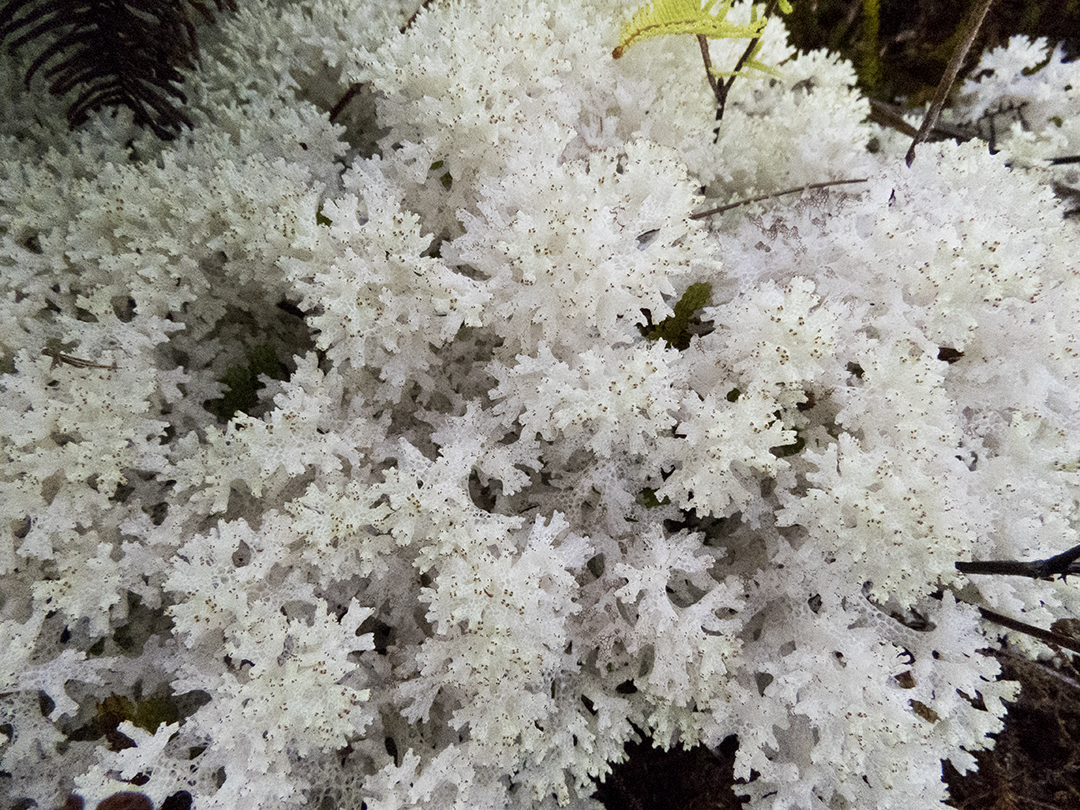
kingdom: Fungi
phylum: Ascomycota
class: Lecanoromycetes
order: Lecanorales
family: Cladoniaceae
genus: Pulchrocladia
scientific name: Pulchrocladia retipora
